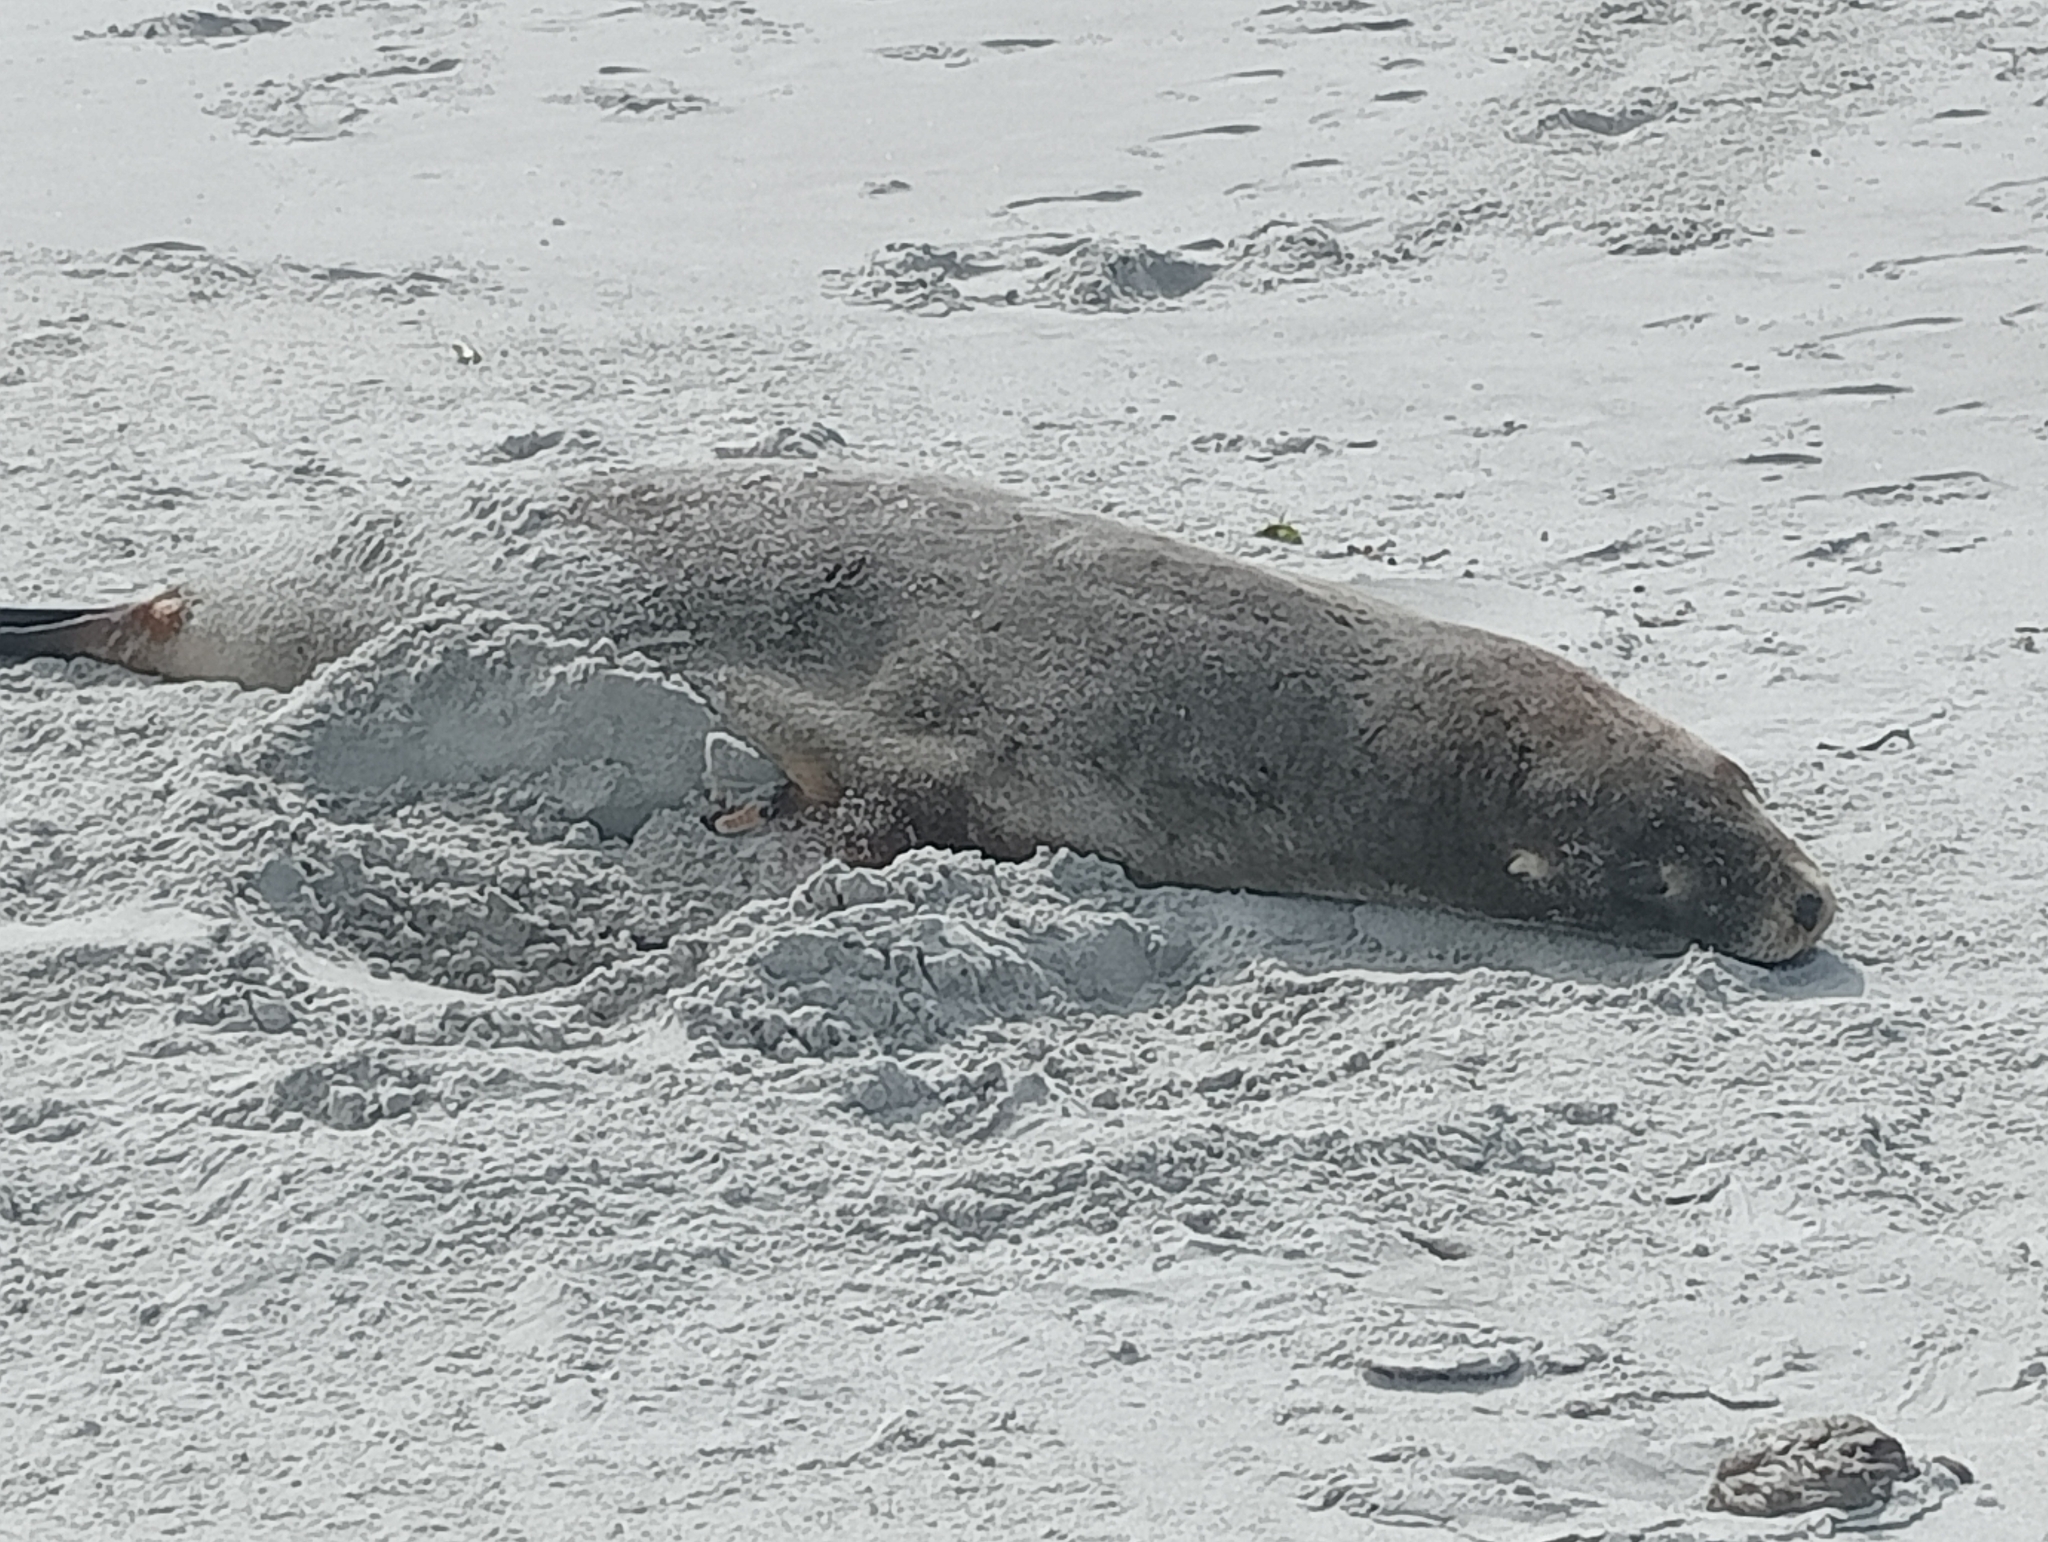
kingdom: Animalia
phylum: Chordata
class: Mammalia
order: Carnivora
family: Otariidae
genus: Phocarctos
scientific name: Phocarctos hookeri
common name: New zealand sea lion
